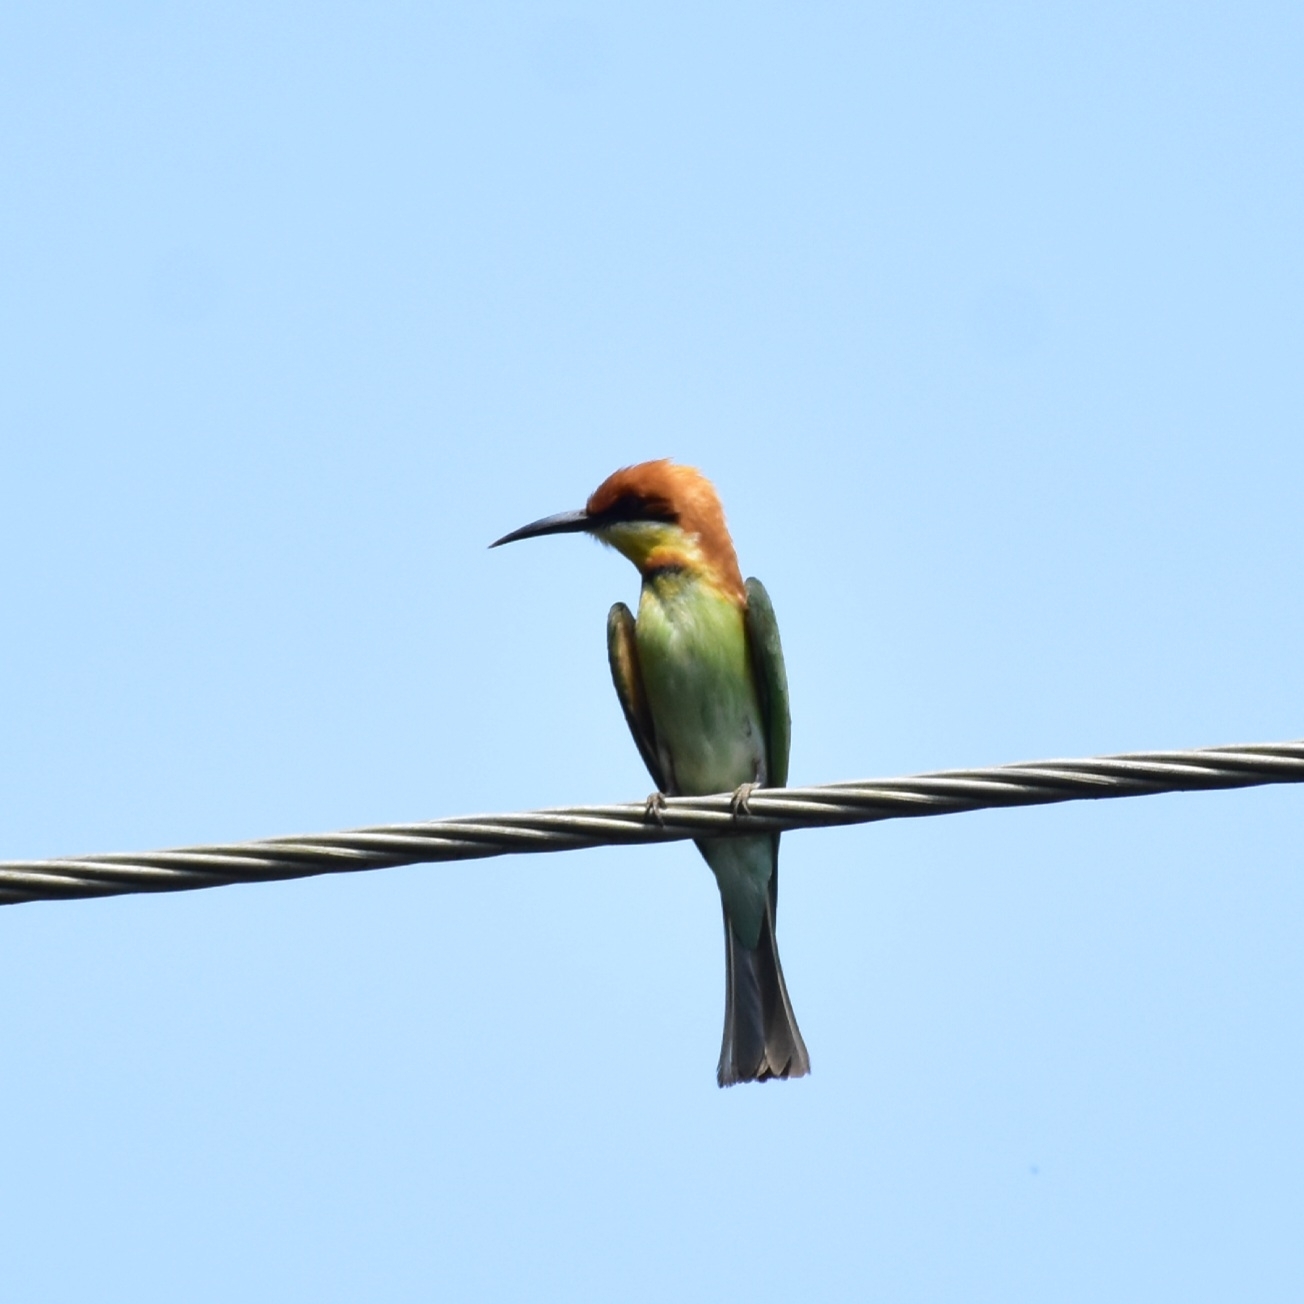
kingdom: Animalia
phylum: Chordata
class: Aves
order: Coraciiformes
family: Meropidae
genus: Merops
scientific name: Merops leschenaulti
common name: Chestnut-headed bee-eater
